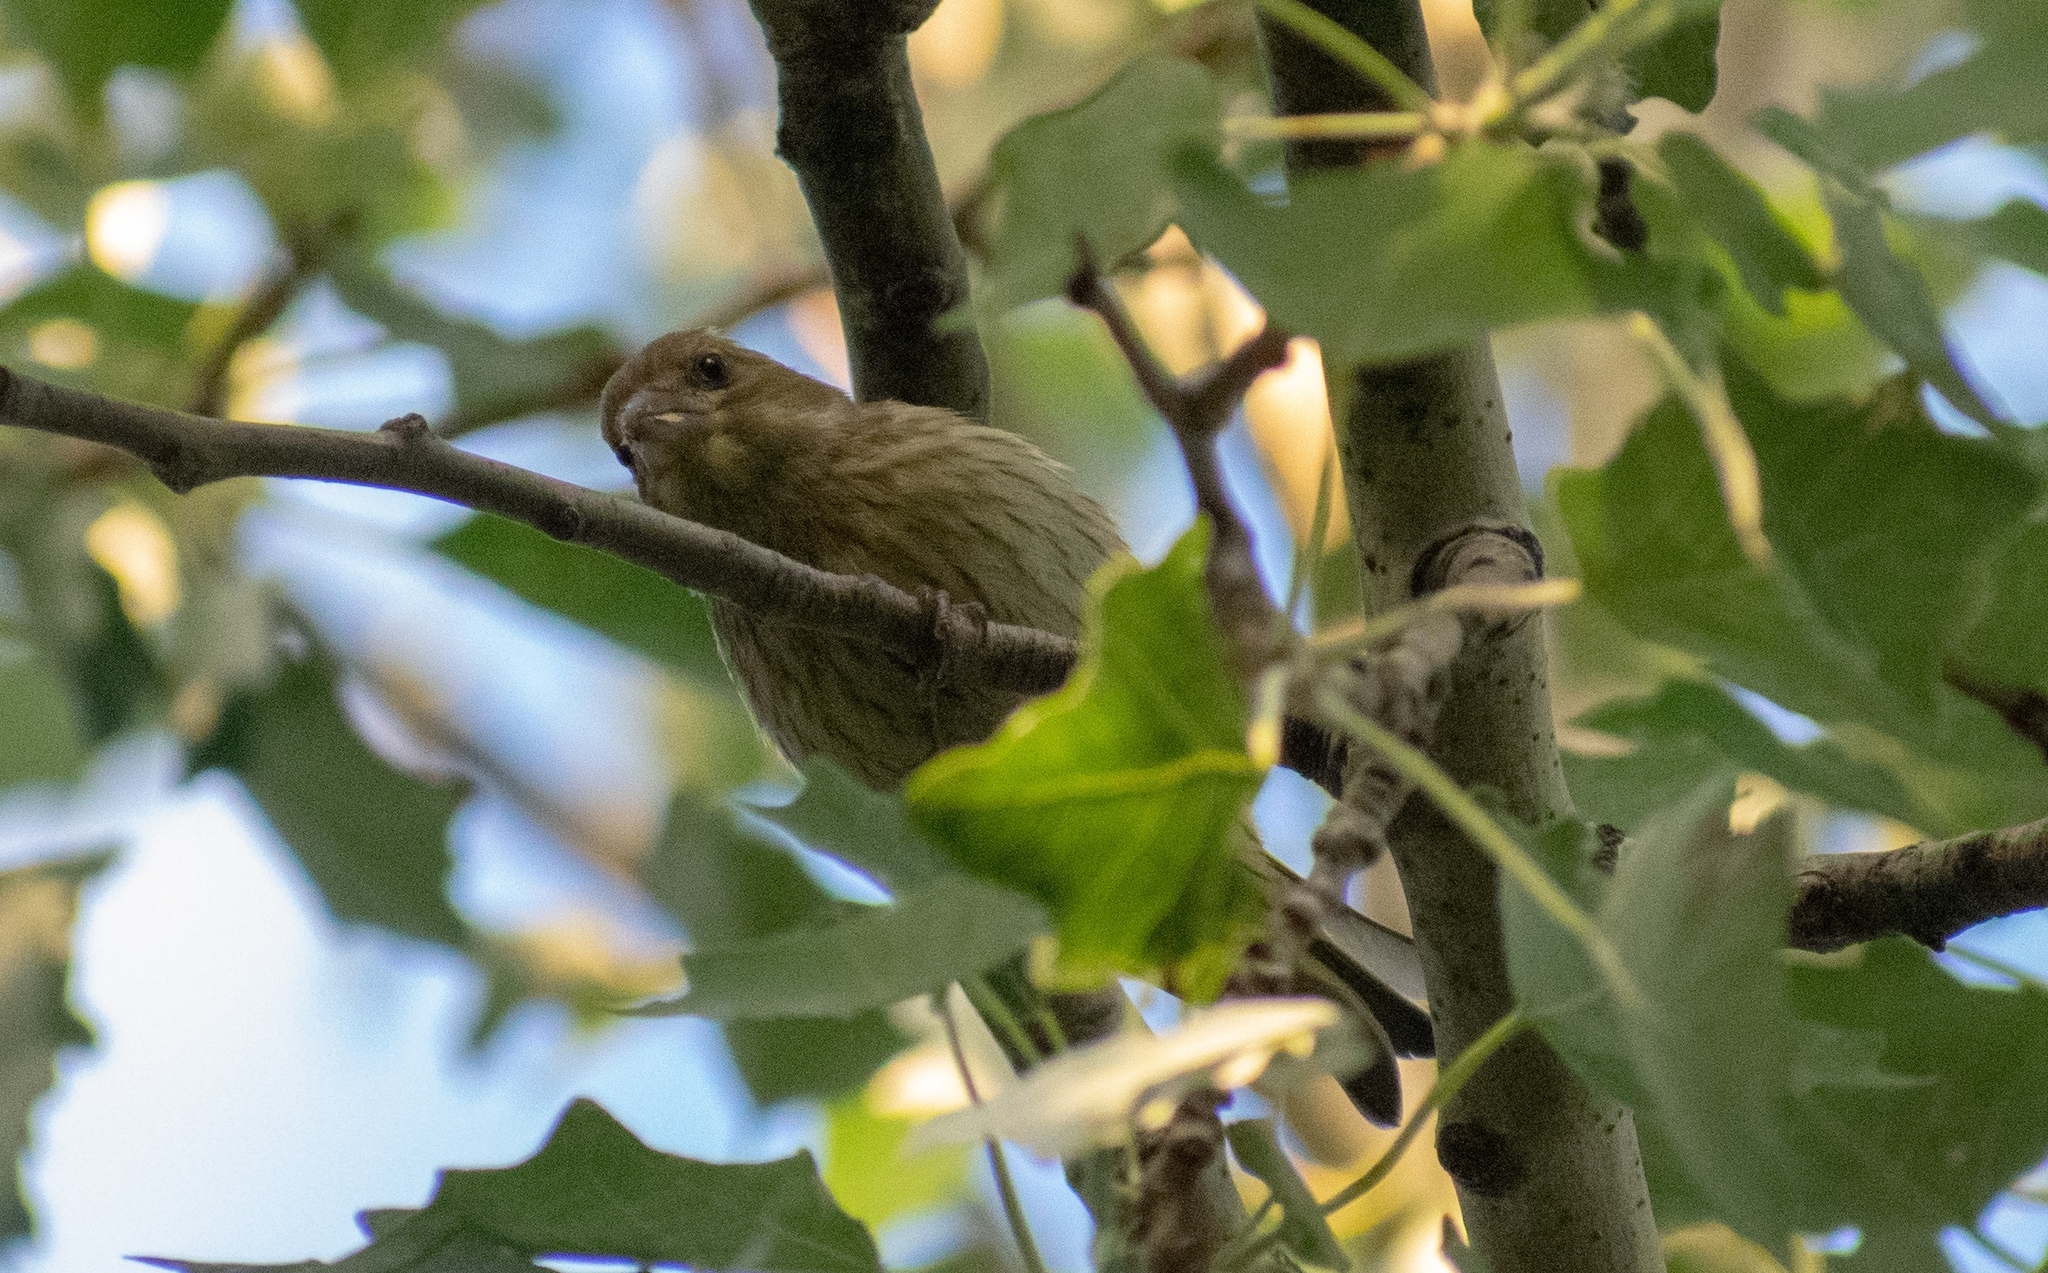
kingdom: Animalia
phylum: Chordata
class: Aves
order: Passeriformes
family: Fringillidae
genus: Serinus
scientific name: Serinus serinus
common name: European serin
